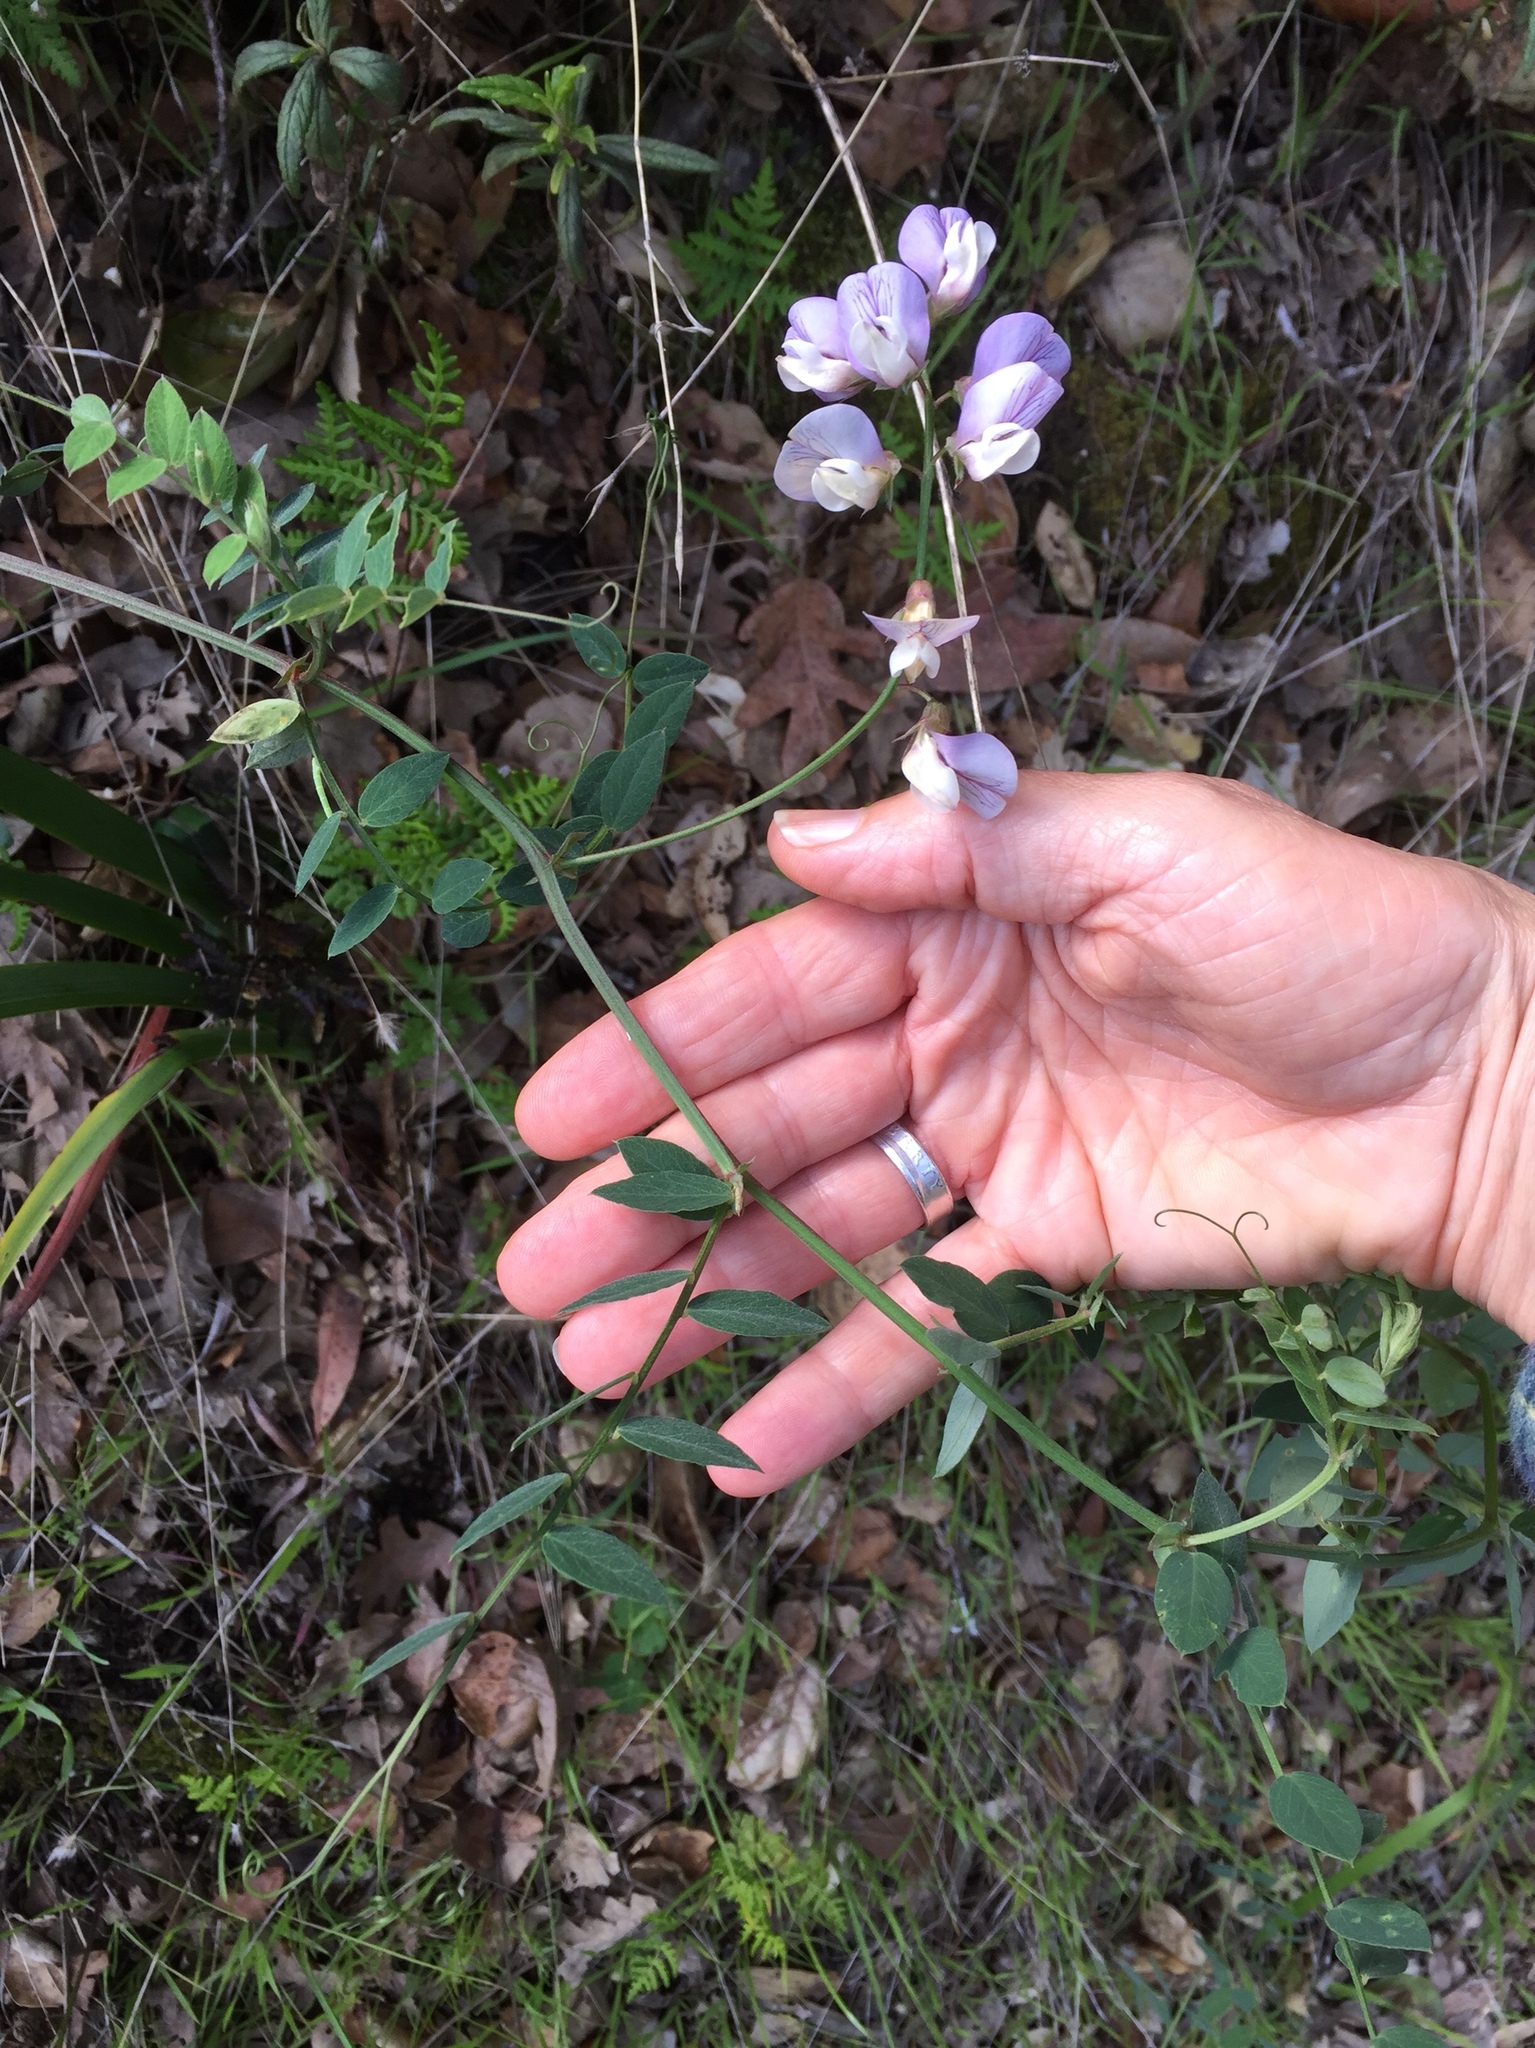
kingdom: Plantae
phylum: Tracheophyta
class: Magnoliopsida
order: Fabales
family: Fabaceae
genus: Lathyrus
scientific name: Lathyrus vestitus
